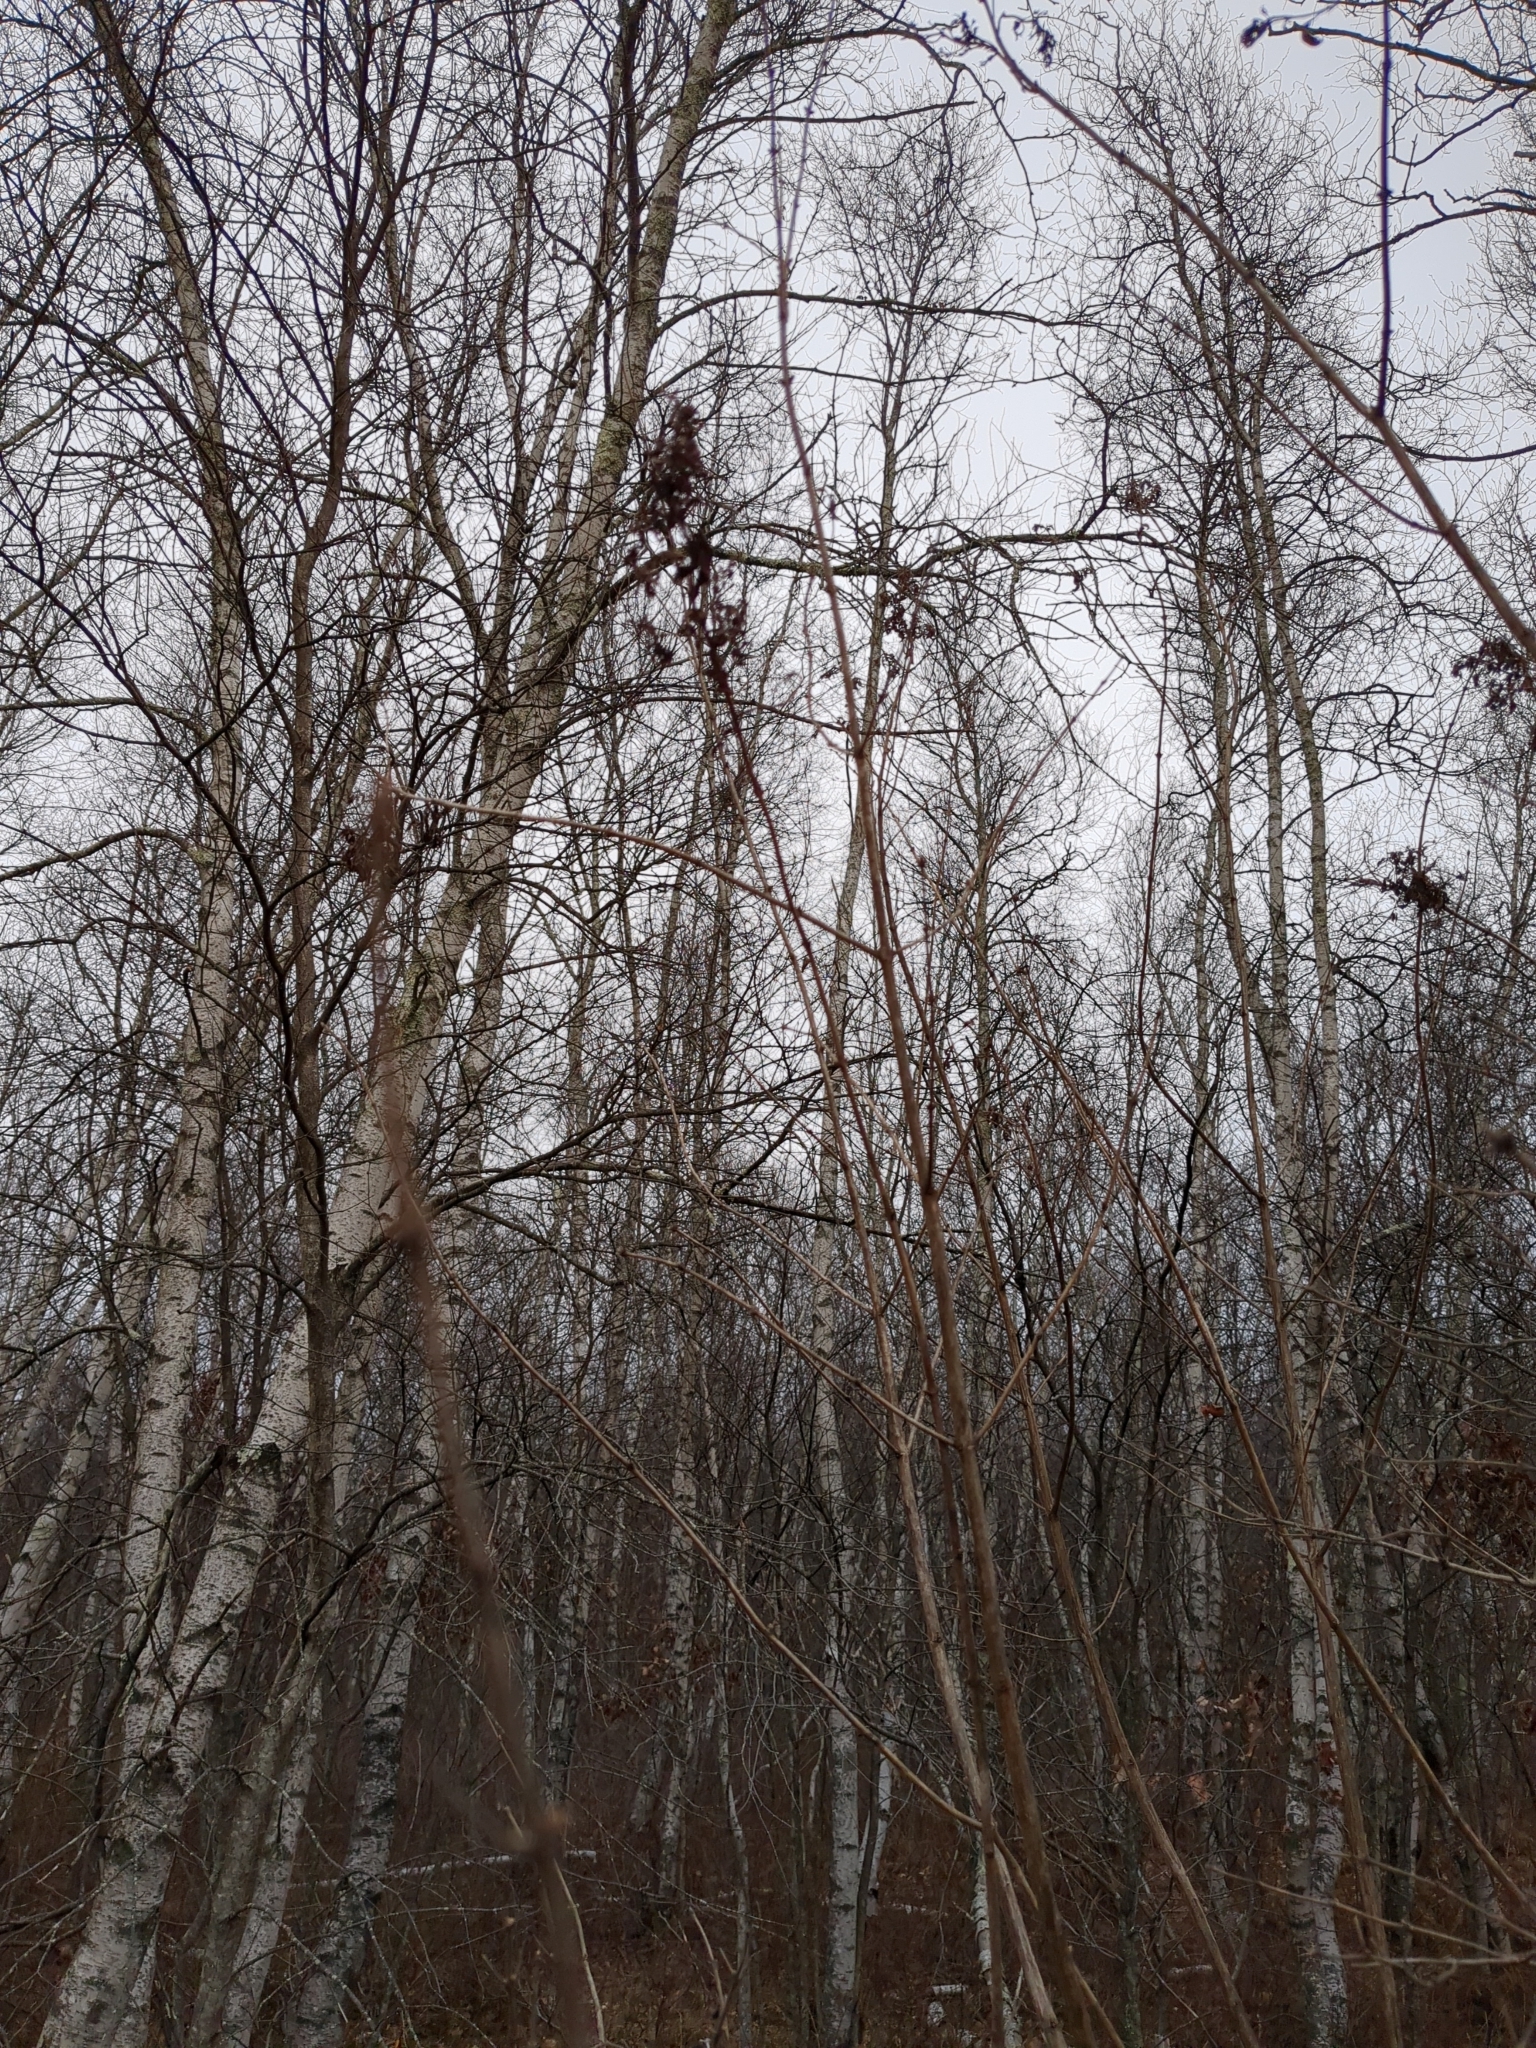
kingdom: Animalia
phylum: Arthropoda
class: Insecta
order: Hemiptera
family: Aphididae
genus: Hyadaphis
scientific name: Hyadaphis tataricae
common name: Honeysuckle witches' broom aphid
